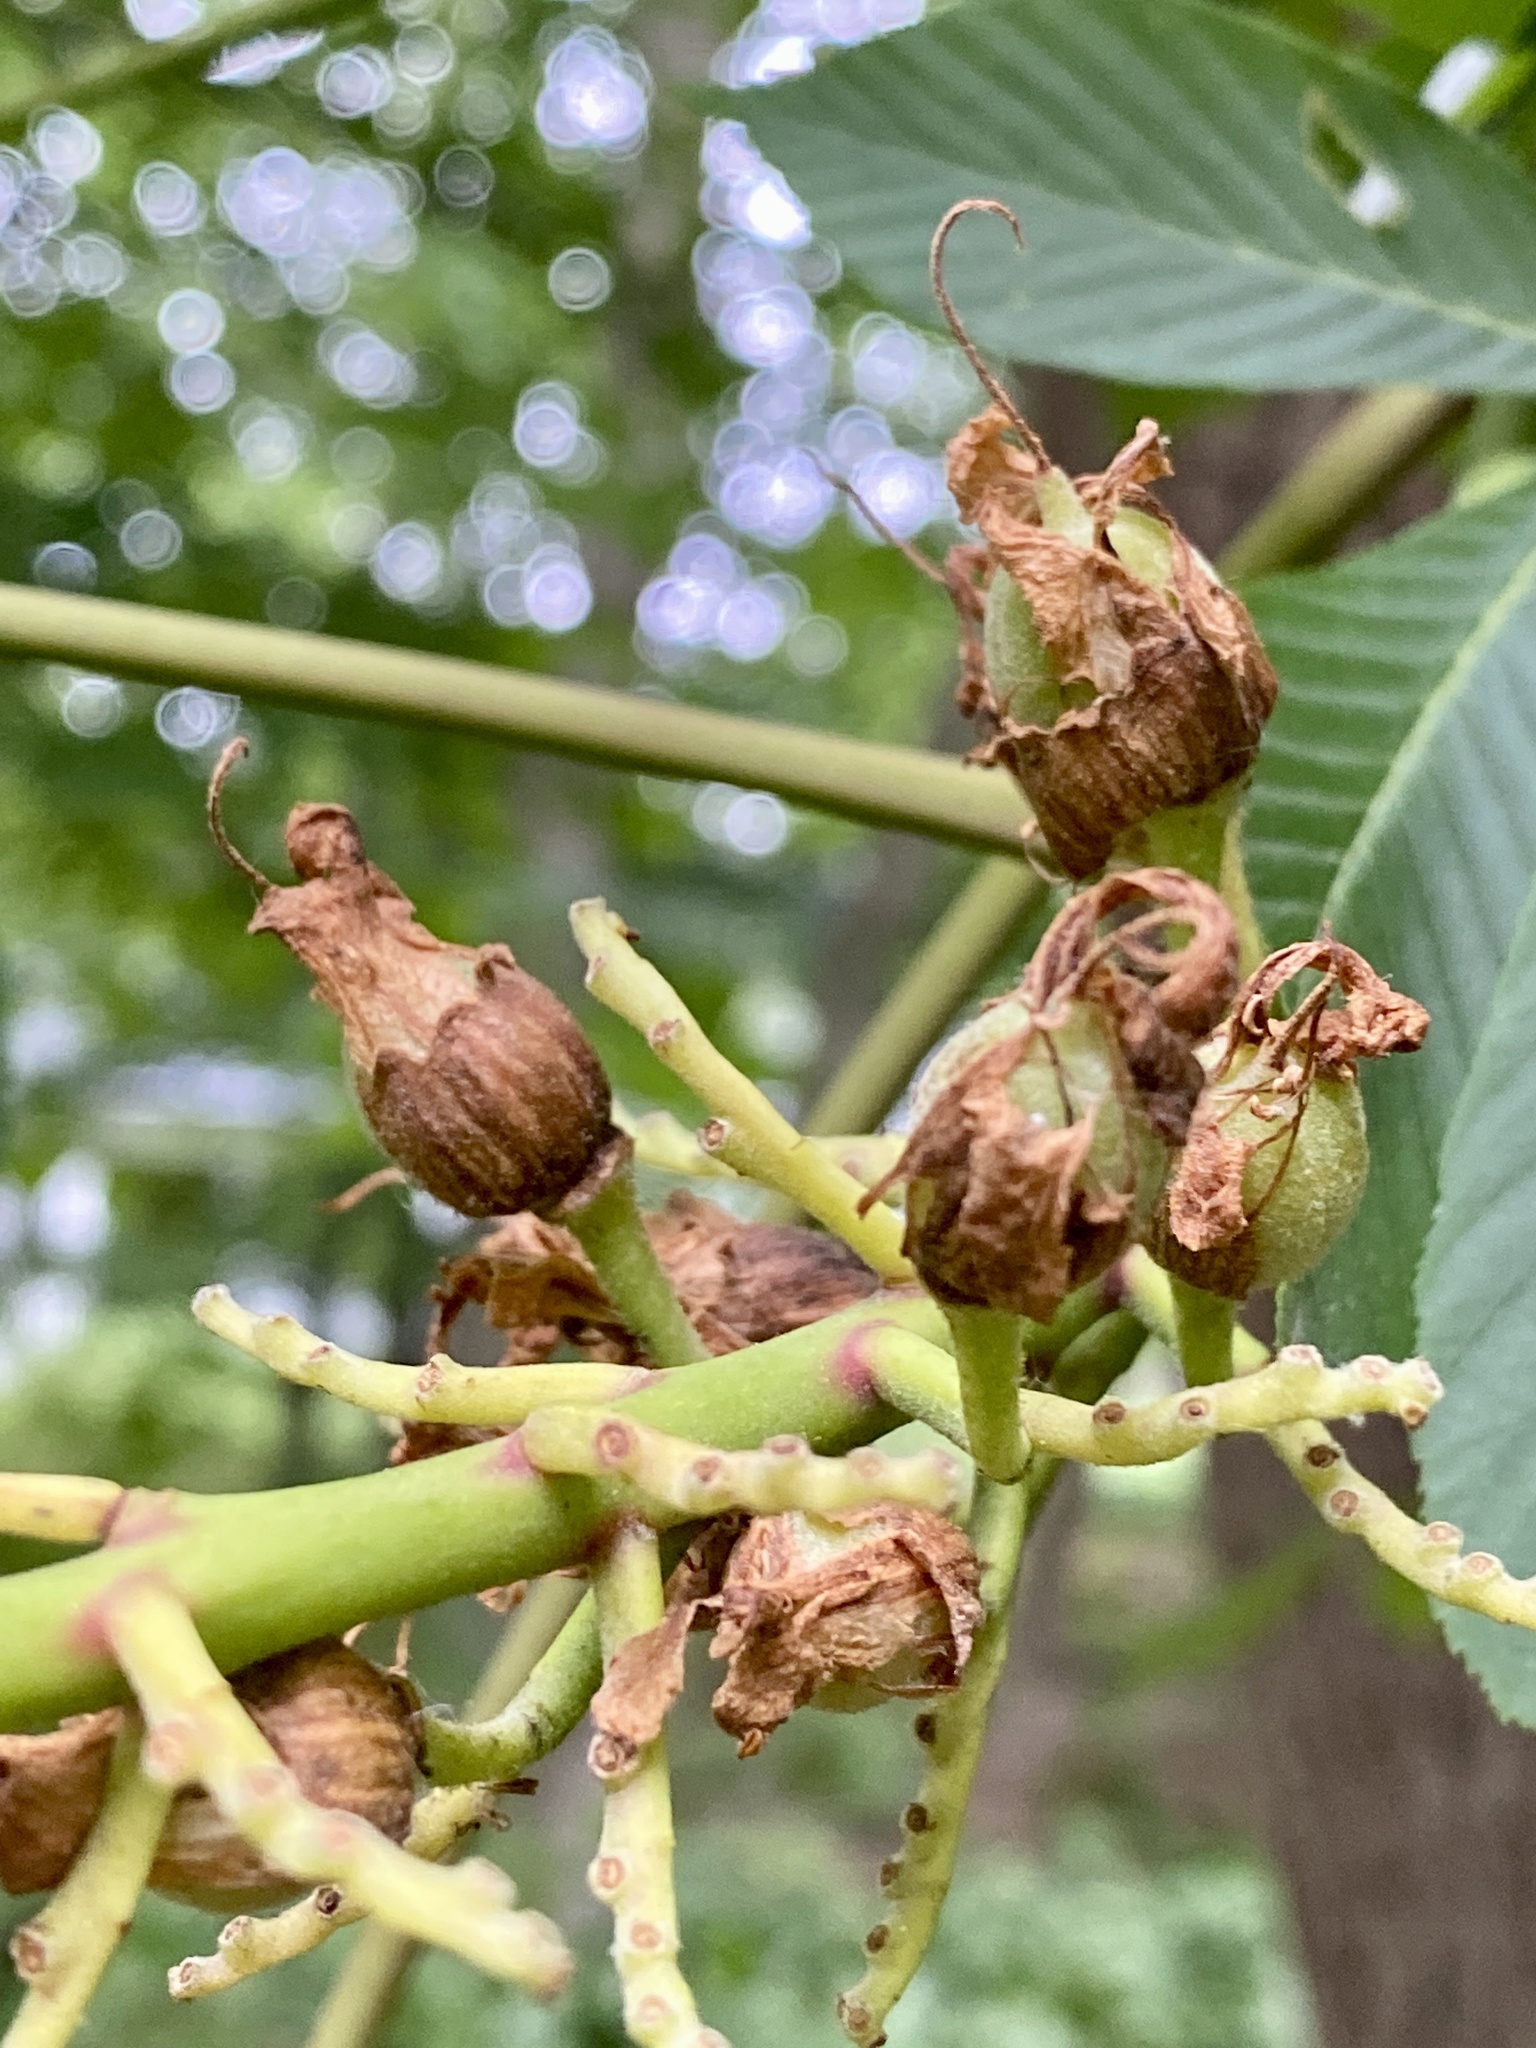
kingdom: Plantae
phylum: Tracheophyta
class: Magnoliopsida
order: Sapindales
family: Sapindaceae
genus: Aesculus
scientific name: Aesculus flava
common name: Yellow buckeye
